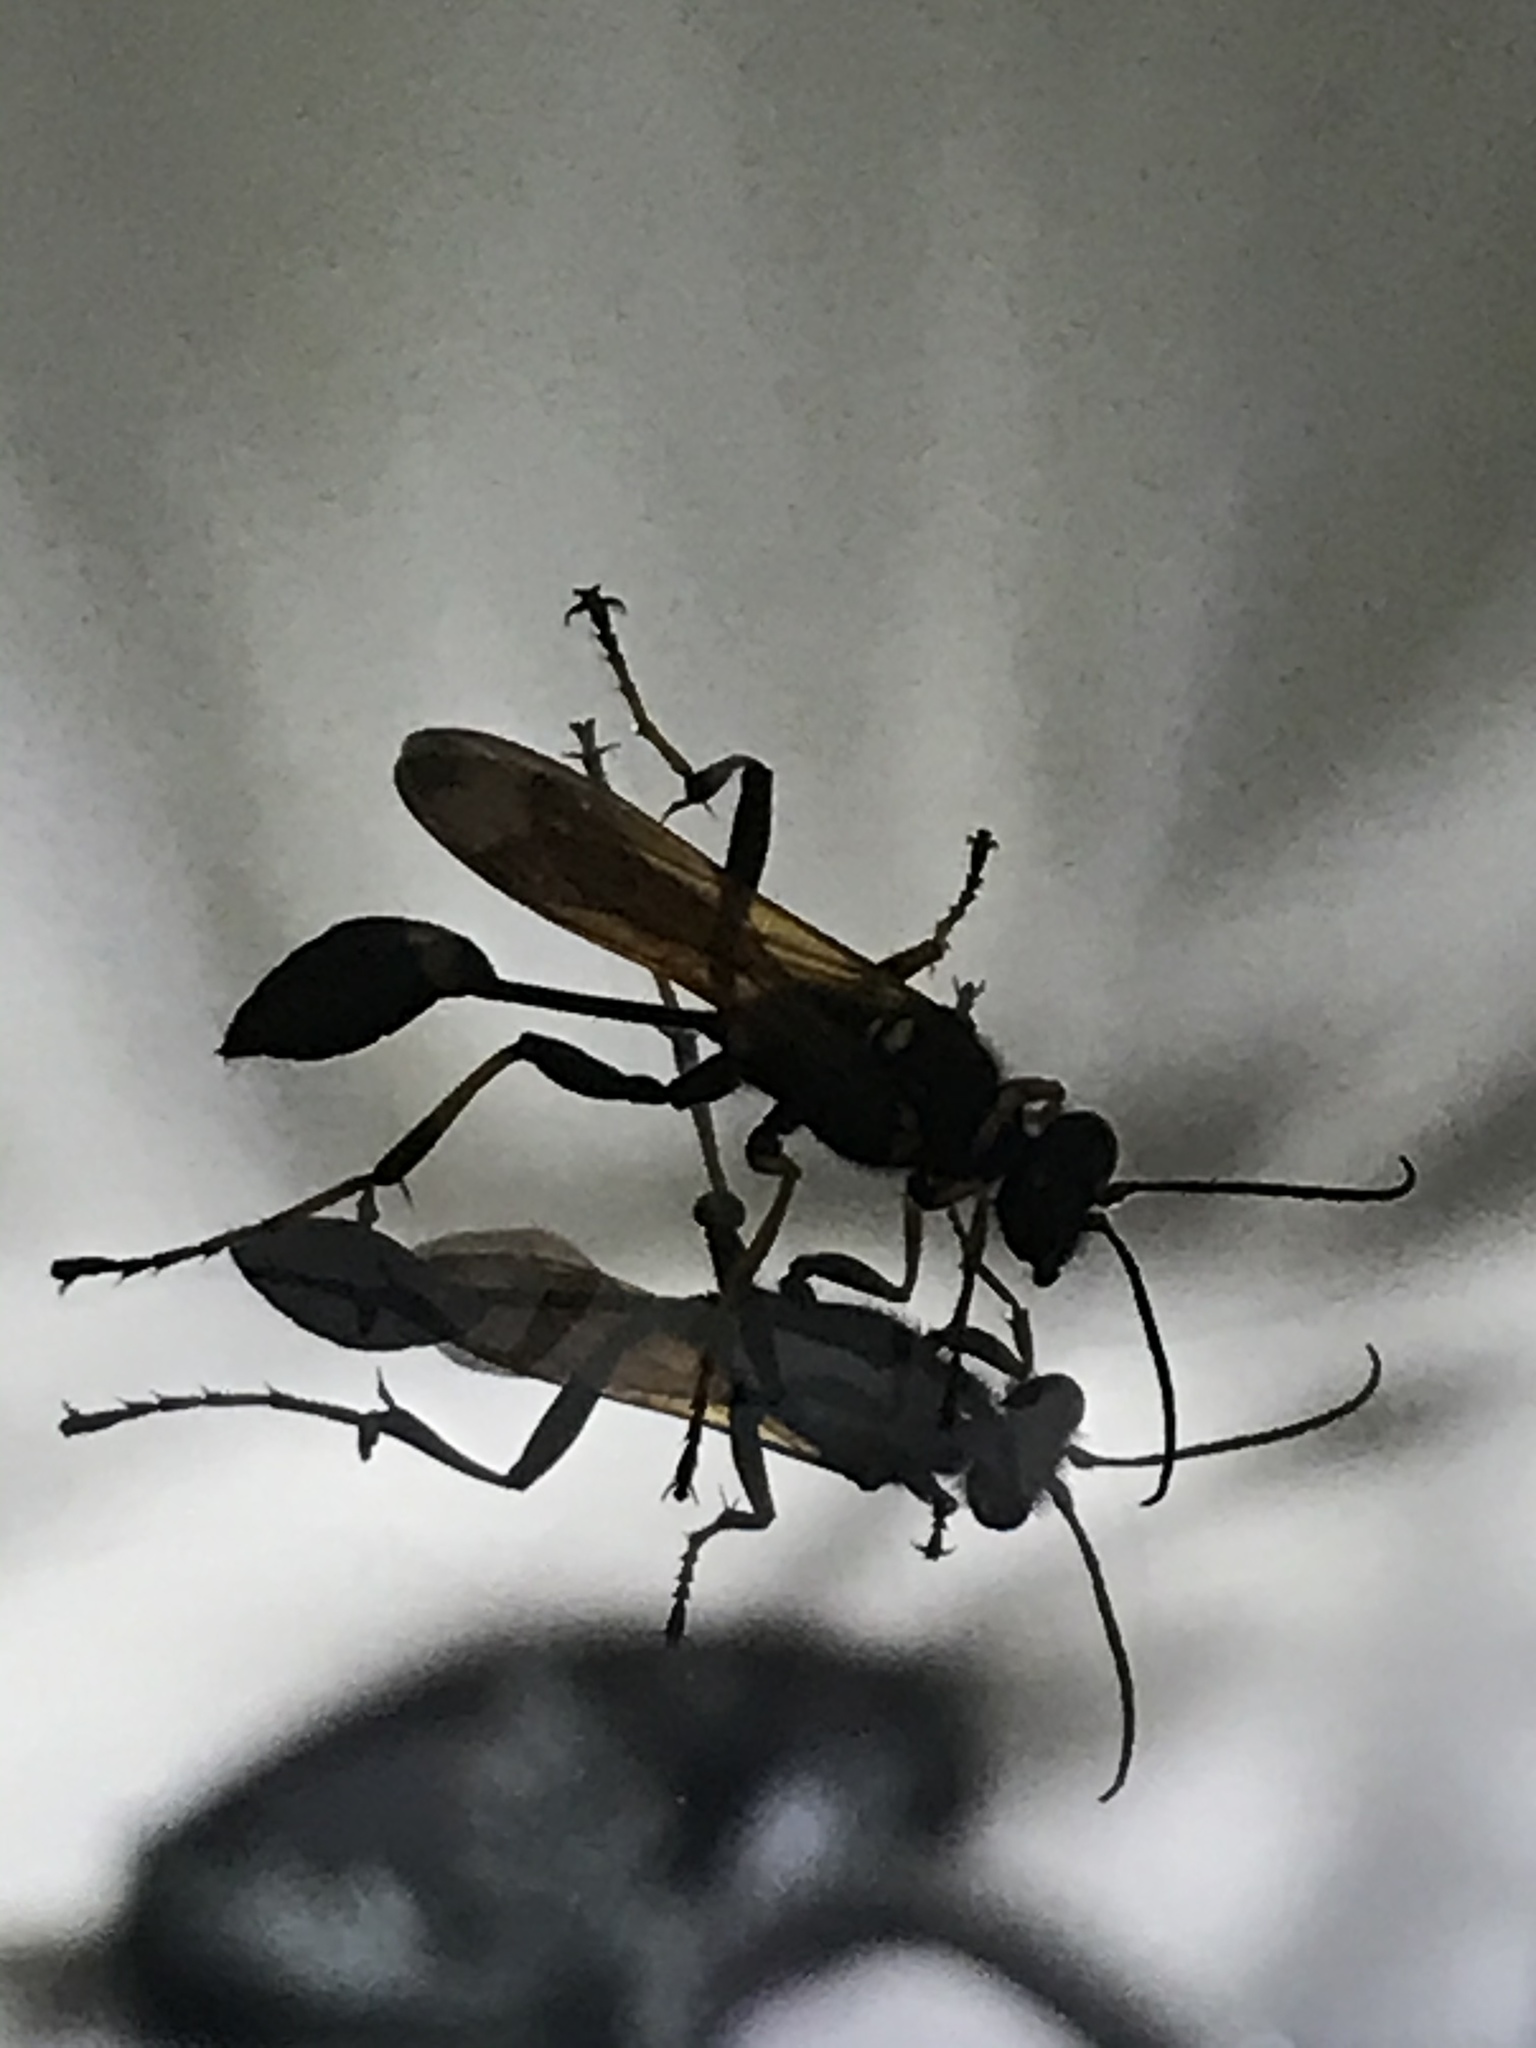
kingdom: Animalia
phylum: Arthropoda
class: Insecta
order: Hymenoptera
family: Sphecidae
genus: Sceliphron
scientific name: Sceliphron caementarium
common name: Mud dauber
